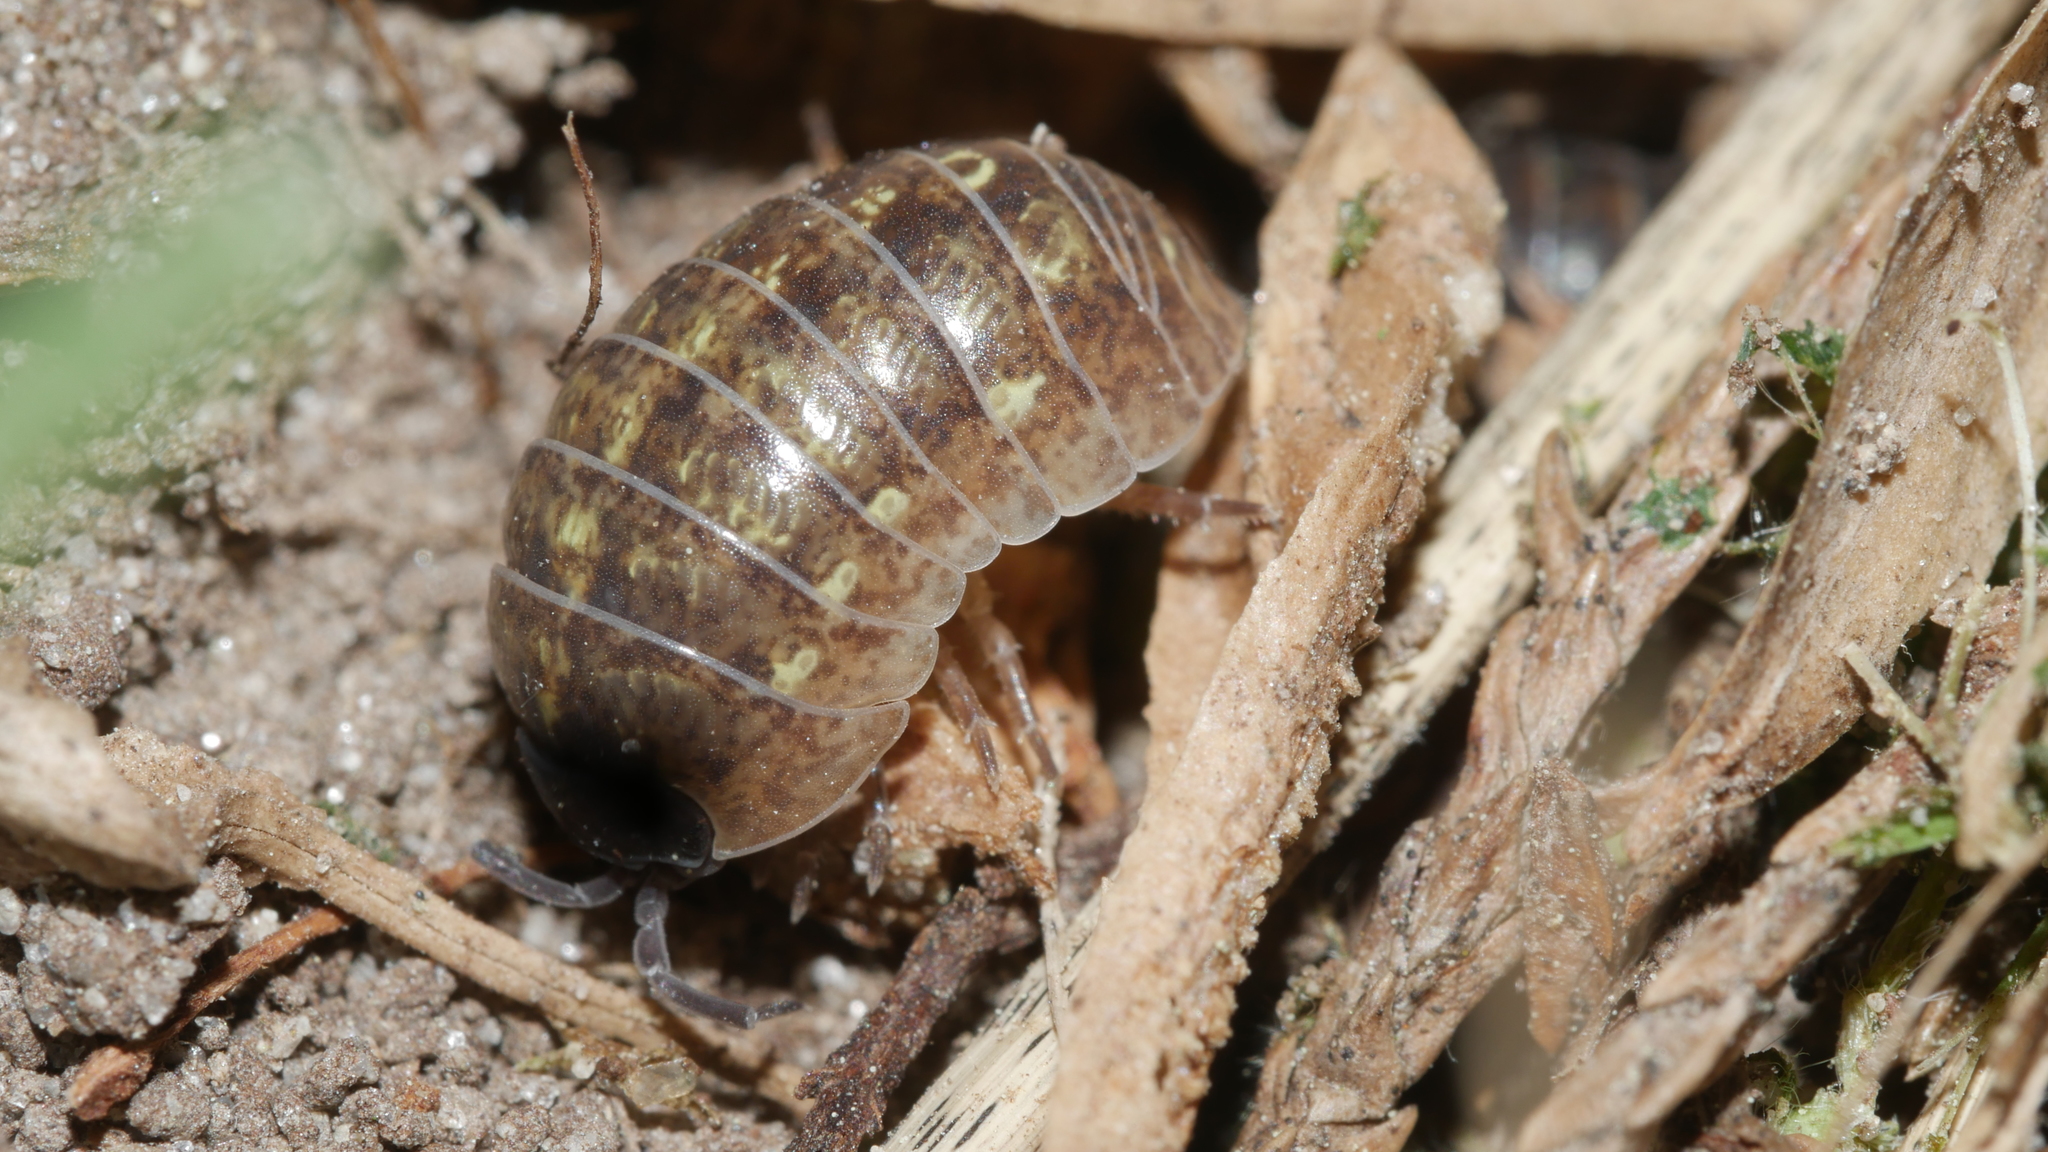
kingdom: Animalia
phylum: Arthropoda
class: Malacostraca
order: Isopoda
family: Armadillidiidae
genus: Armadillidium
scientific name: Armadillidium vulgare
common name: Common pill woodlouse
